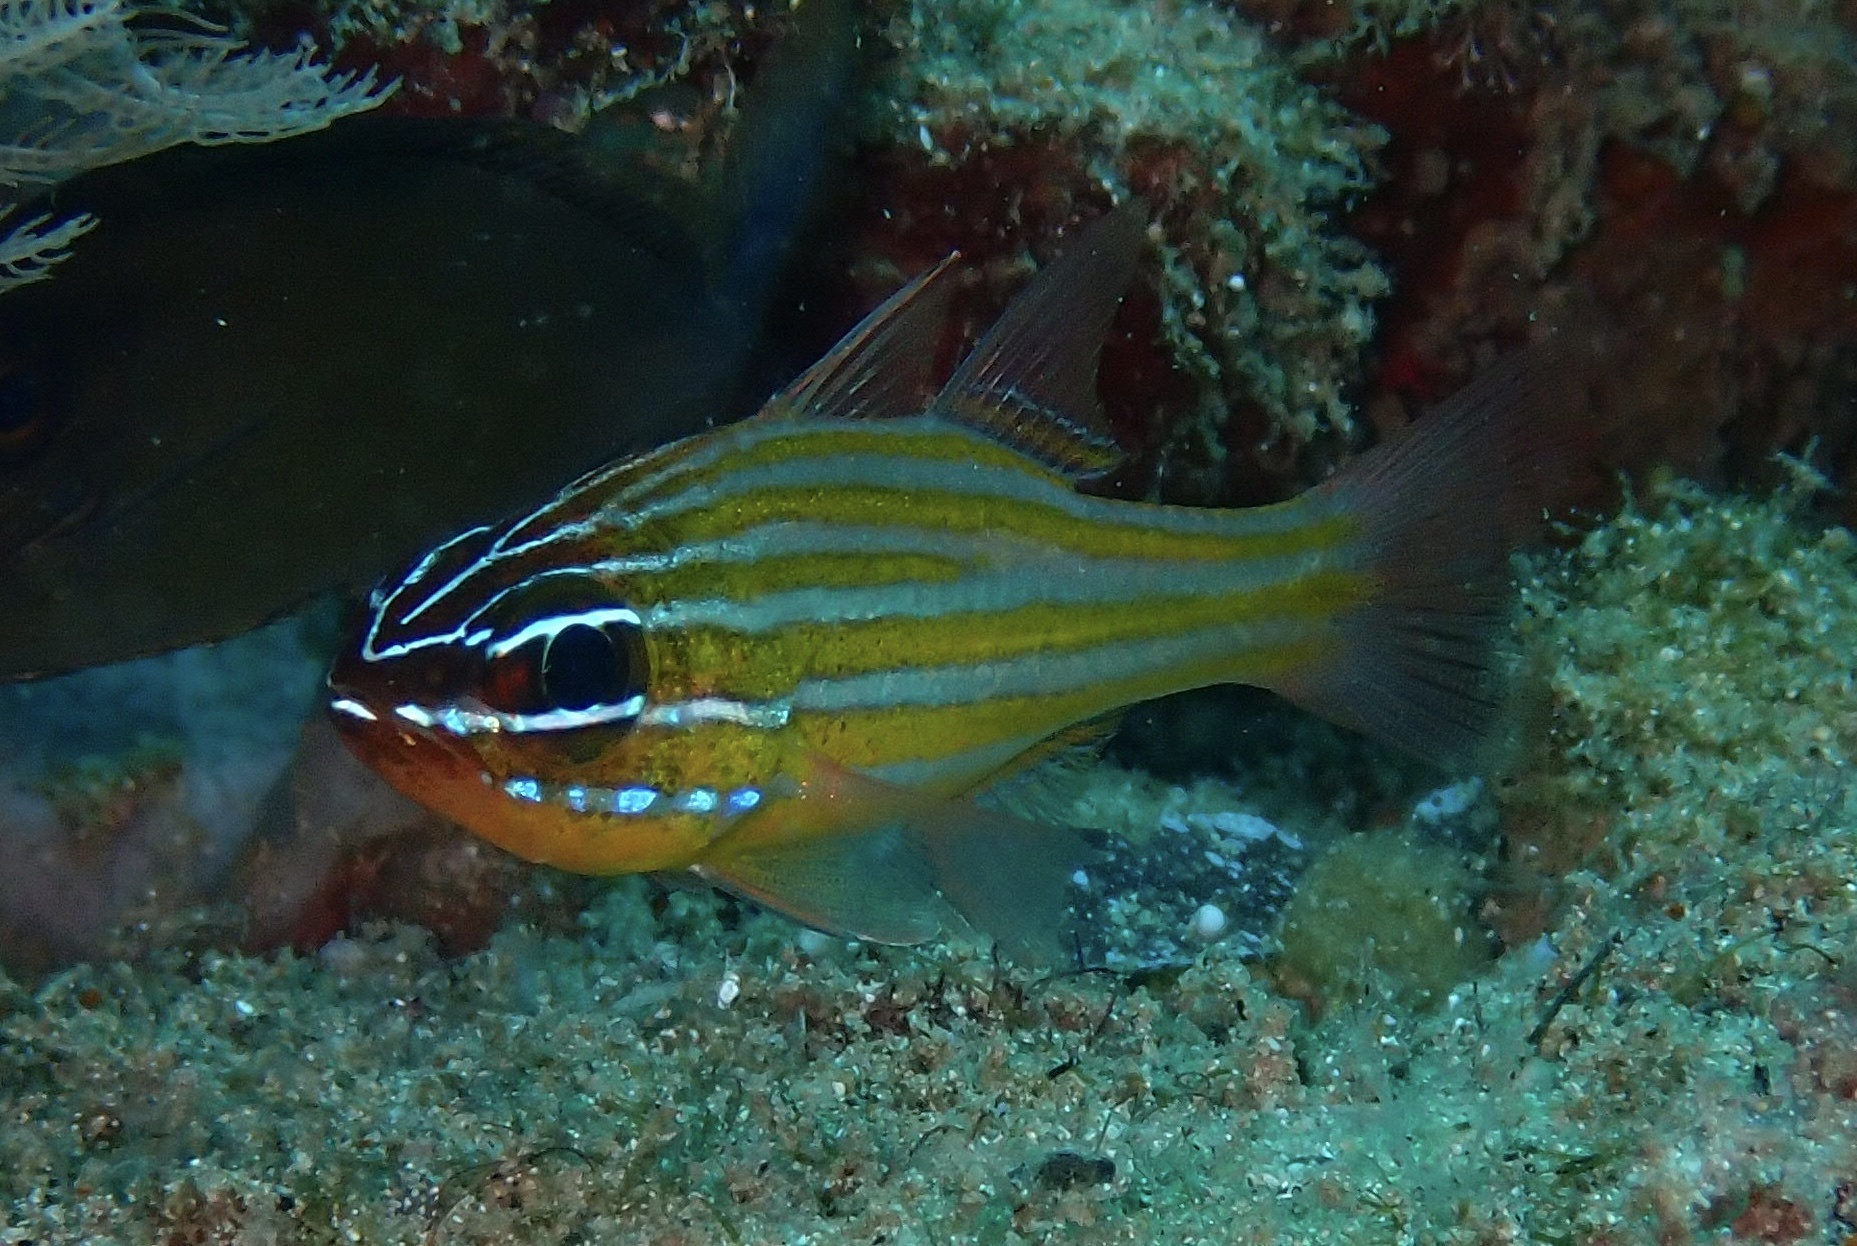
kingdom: Animalia
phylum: Chordata
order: Perciformes
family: Apogonidae
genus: Ostorhinchus
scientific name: Ostorhinchus cyanosoma
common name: Yellow-striped cardinalfish
